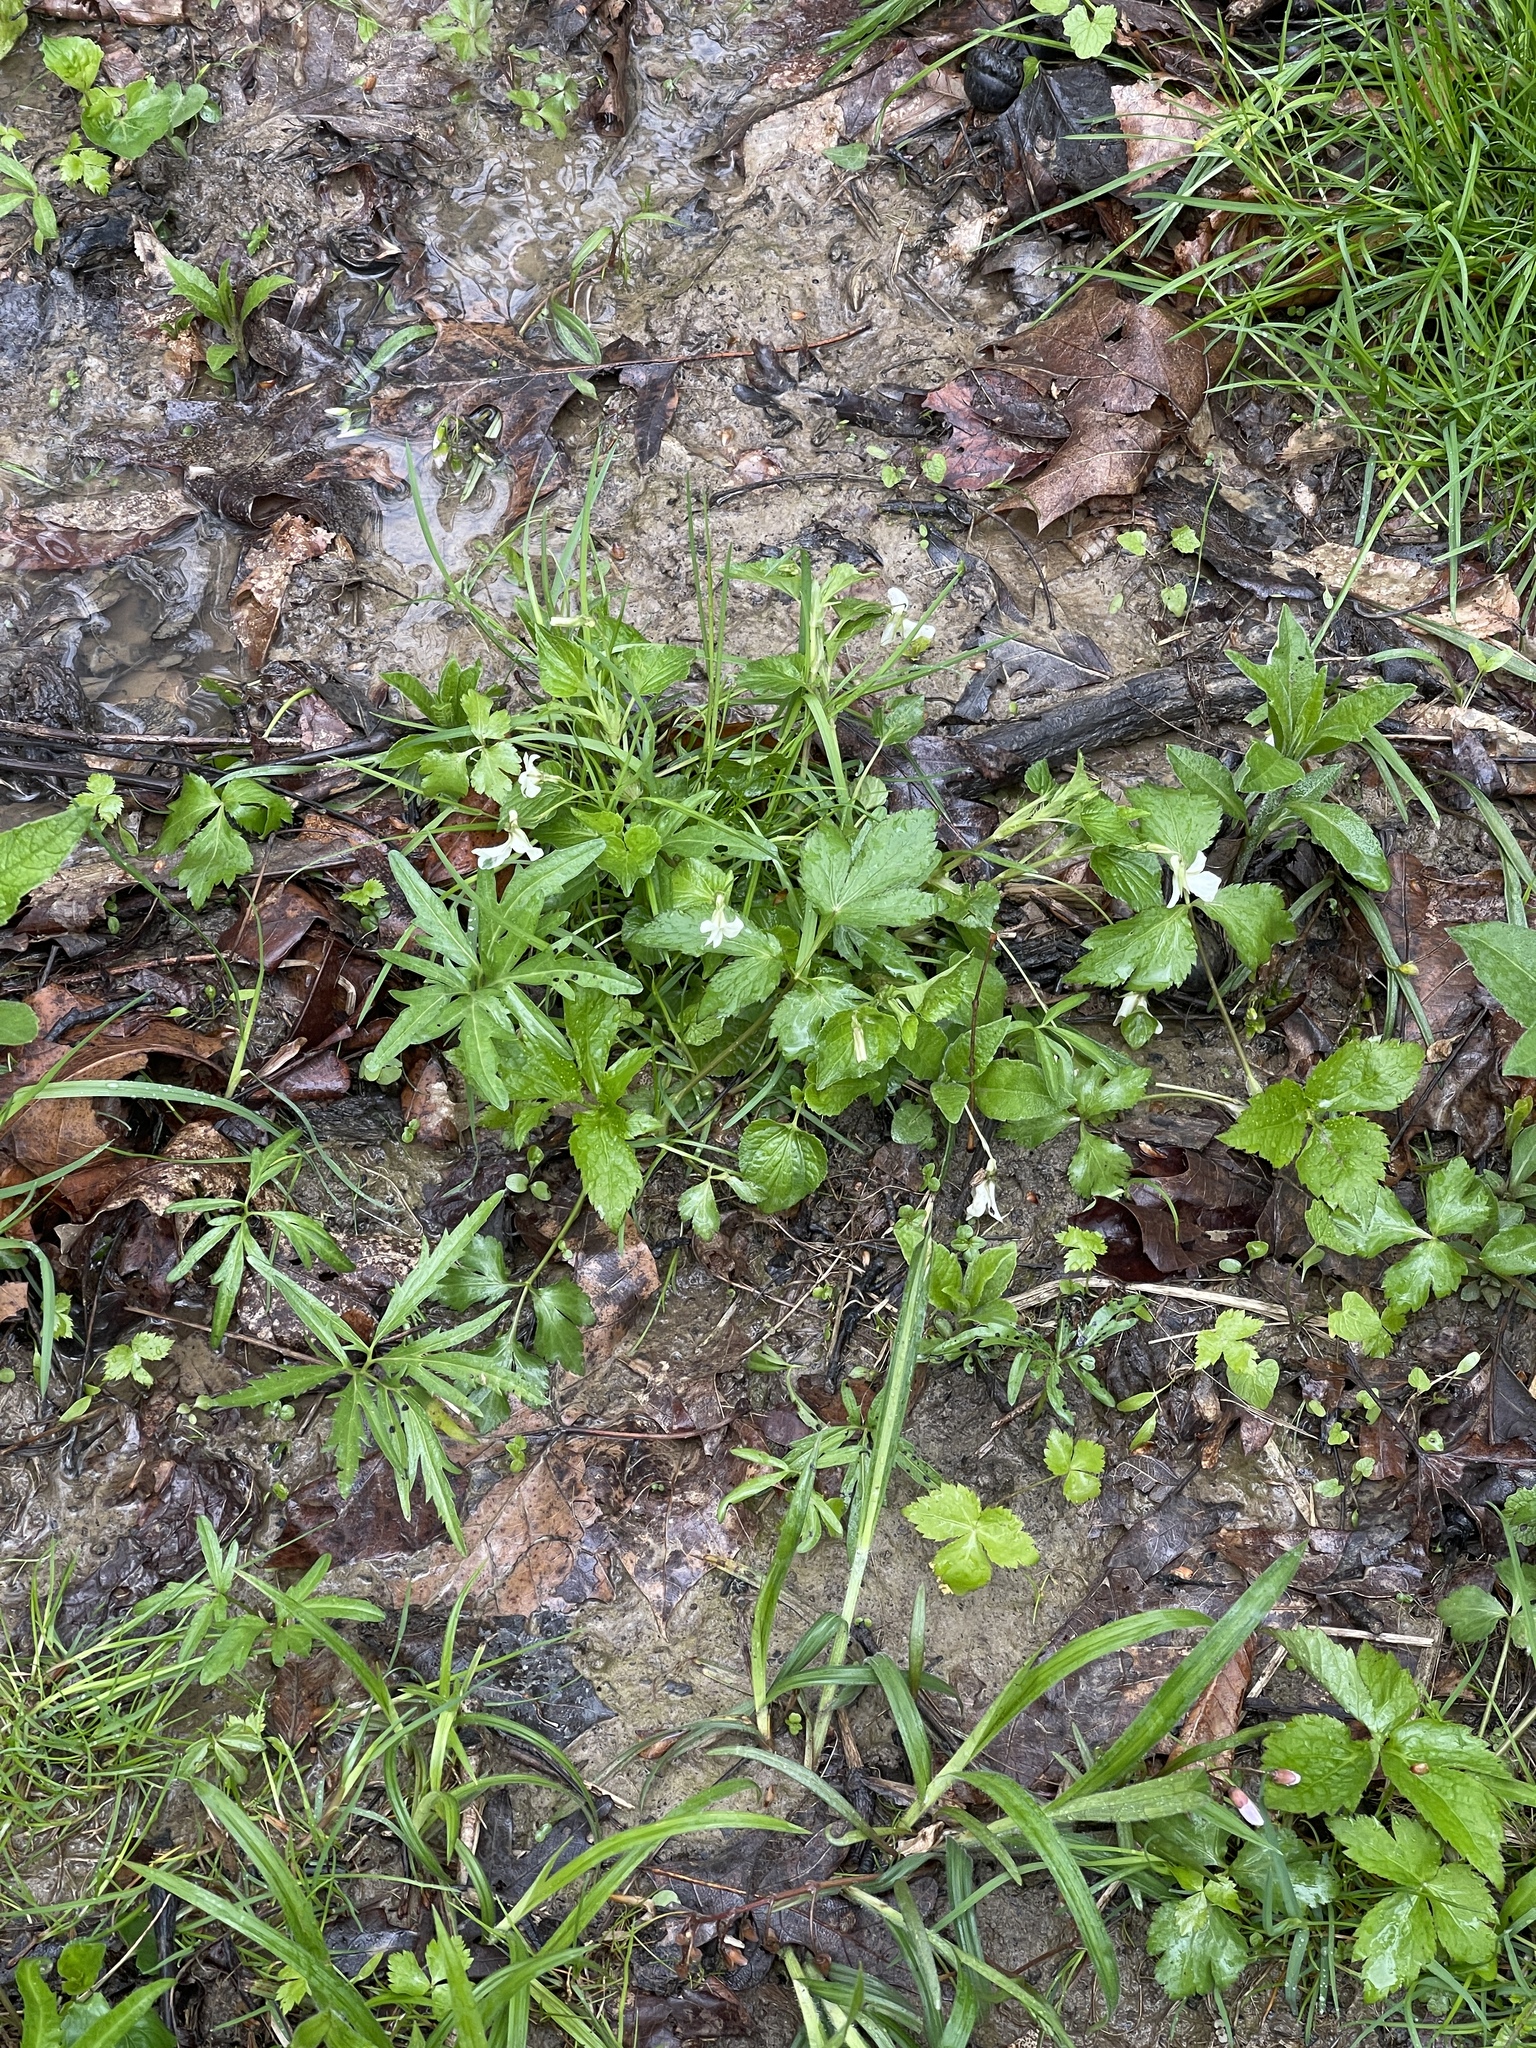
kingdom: Plantae
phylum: Tracheophyta
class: Magnoliopsida
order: Malpighiales
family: Violaceae
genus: Viola
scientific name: Viola striata
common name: Cream violet
